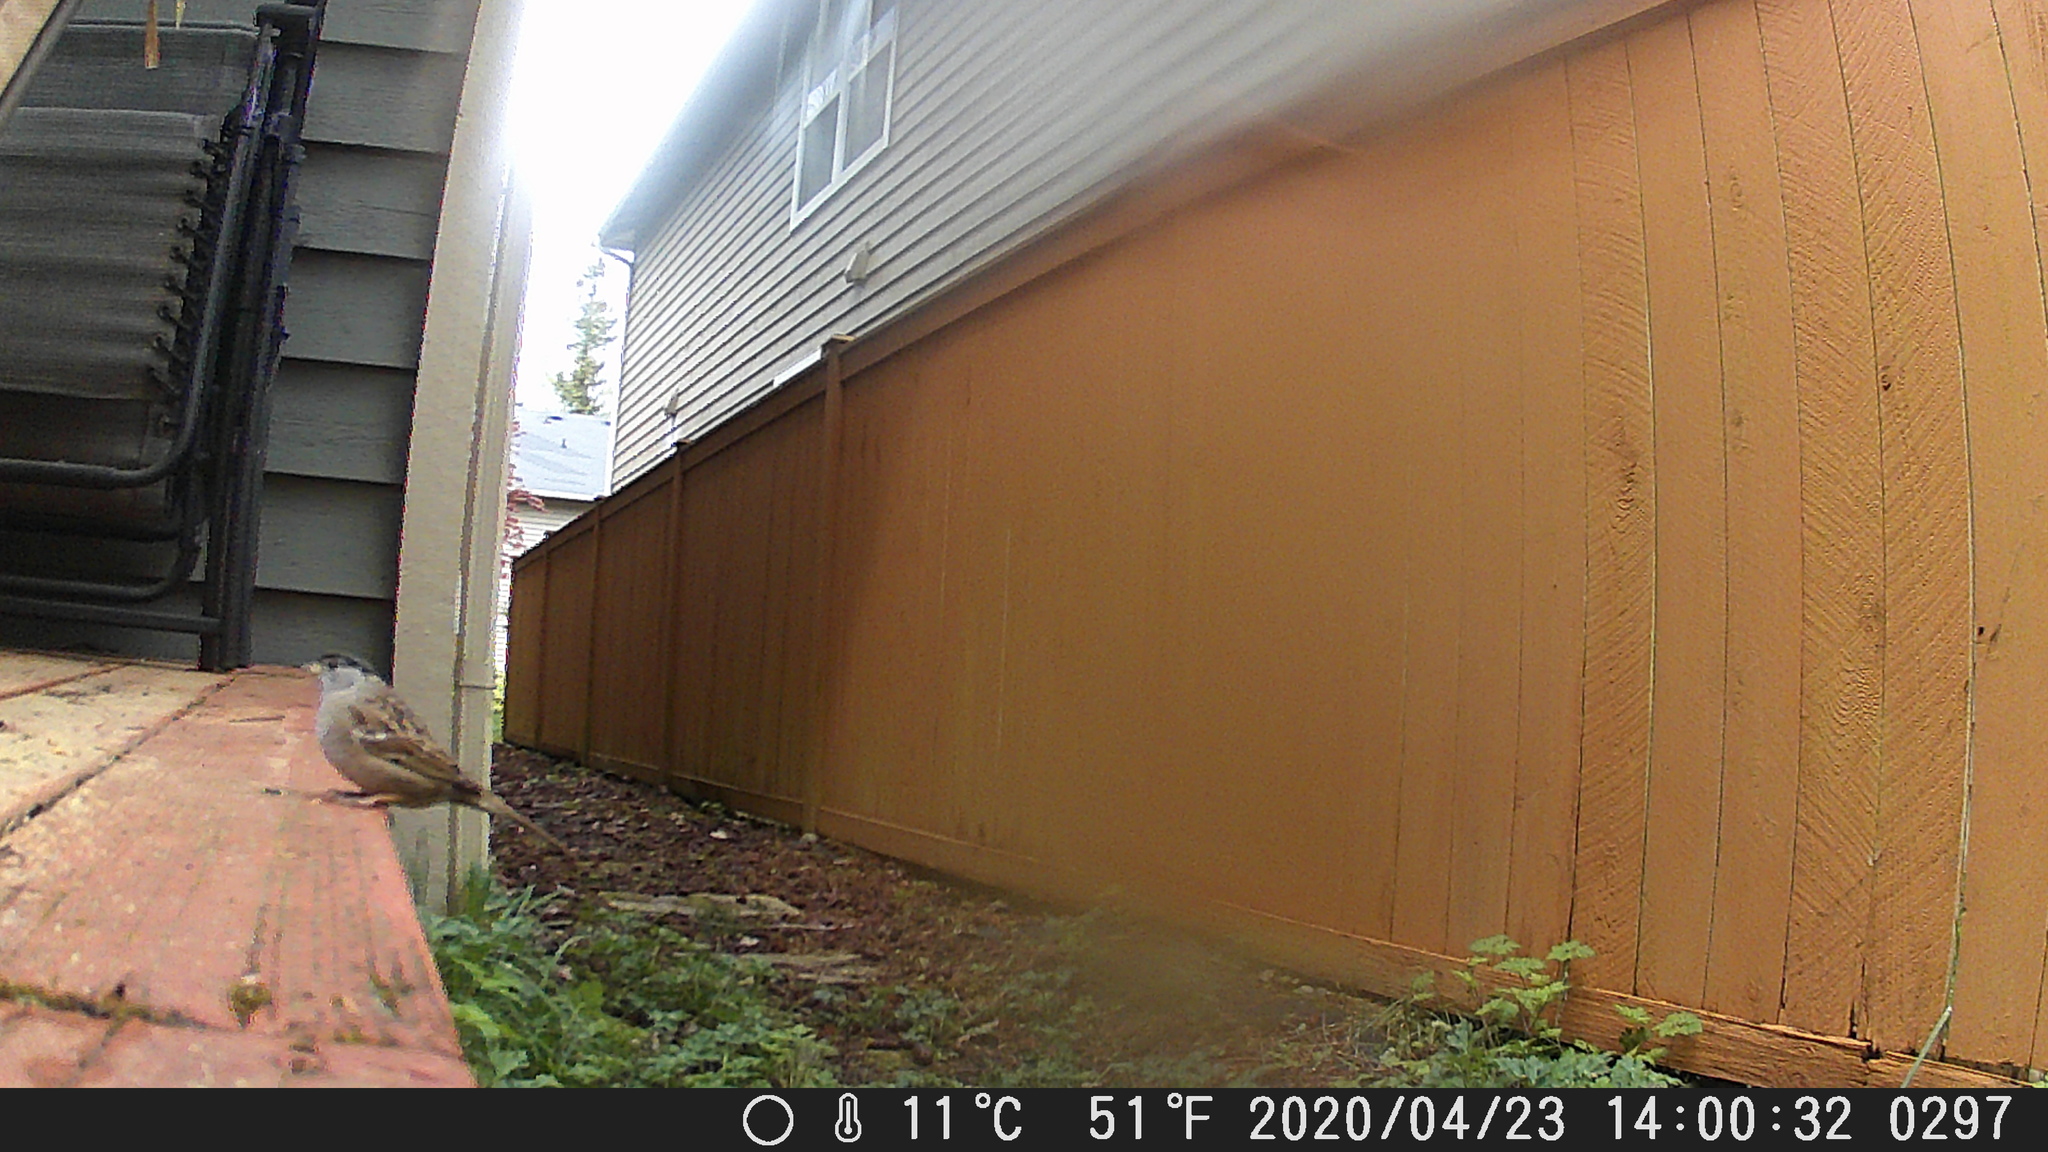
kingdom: Animalia
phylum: Chordata
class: Aves
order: Passeriformes
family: Passerellidae
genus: Zonotrichia
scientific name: Zonotrichia atricapilla
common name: Golden-crowned sparrow
